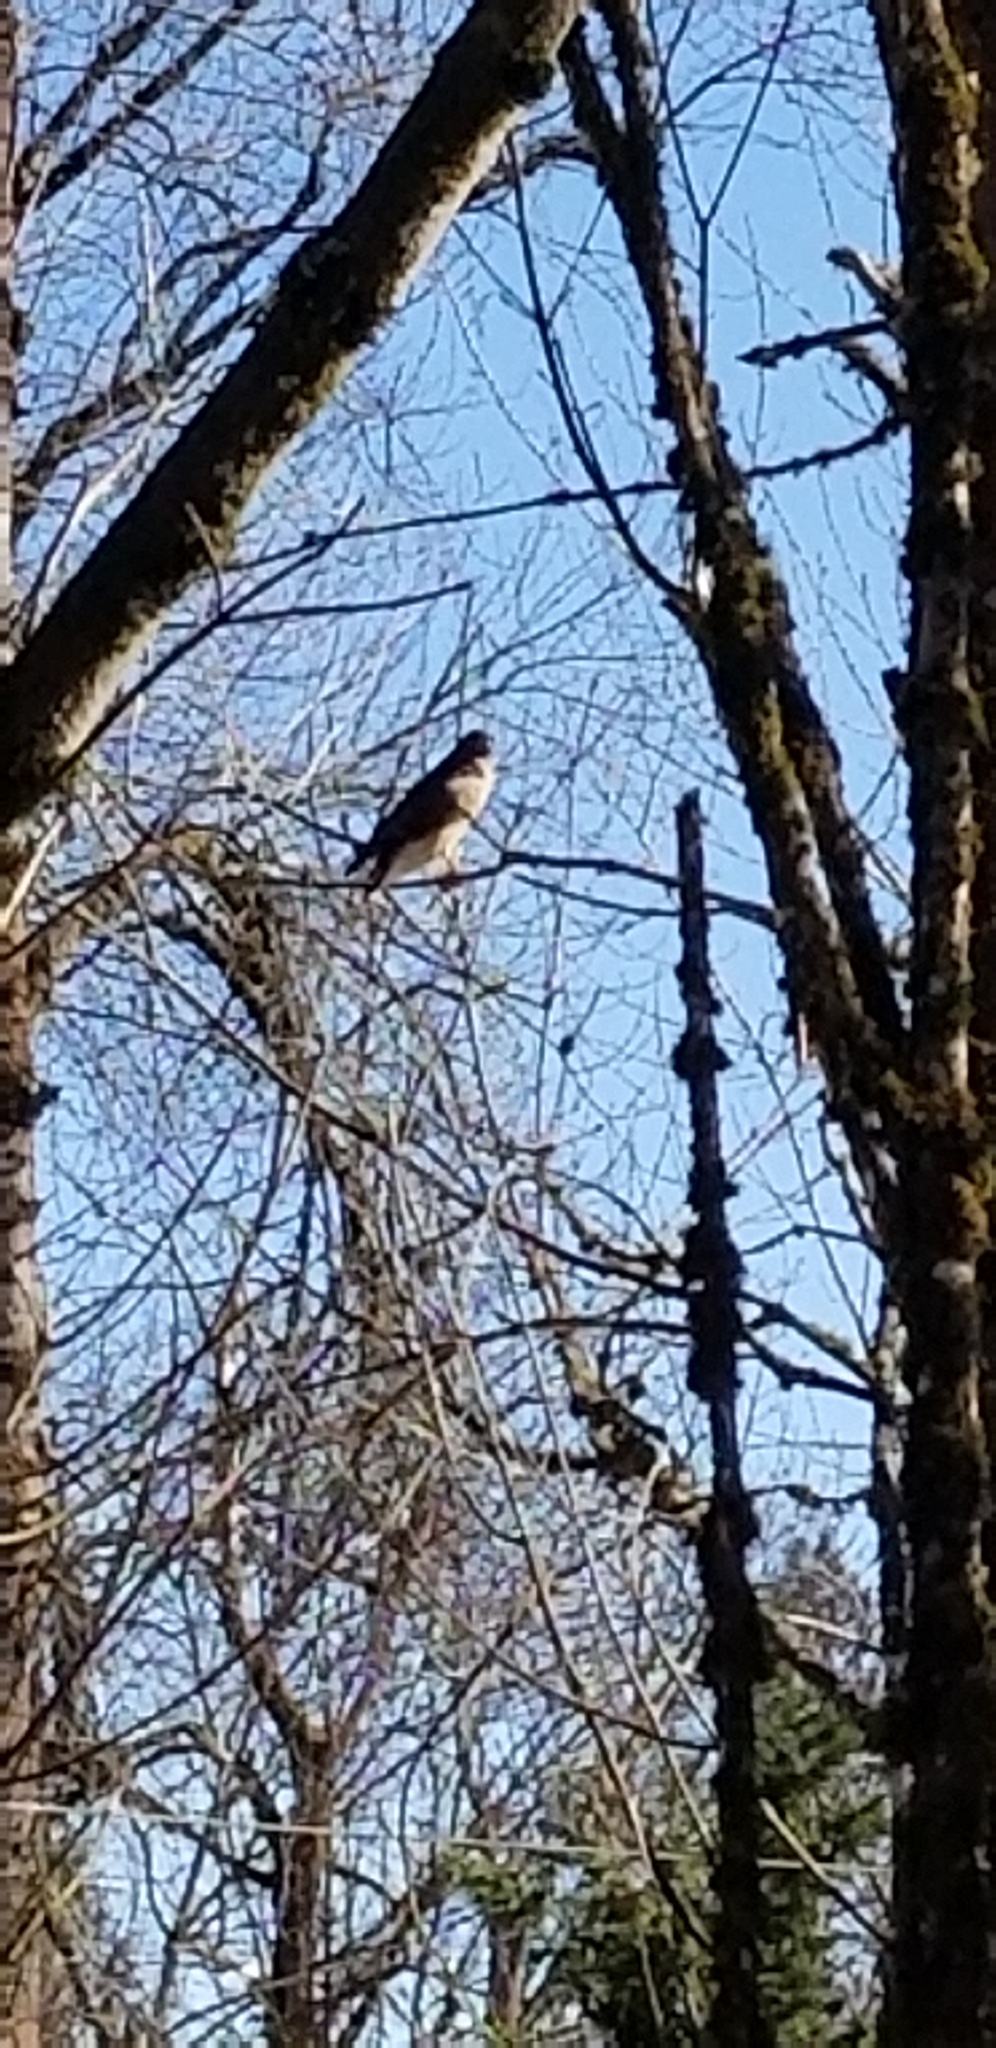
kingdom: Animalia
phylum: Chordata
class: Aves
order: Accipitriformes
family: Accipitridae
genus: Buteo
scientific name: Buteo jamaicensis
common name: Red-tailed hawk
